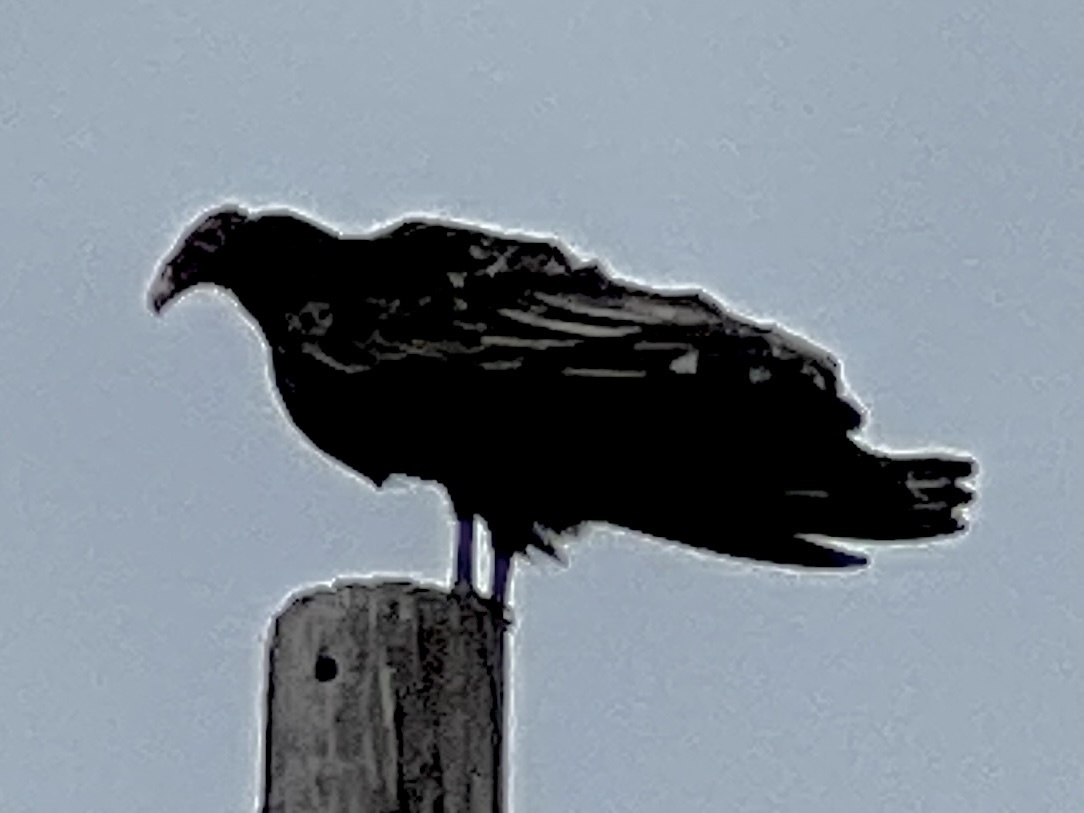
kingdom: Animalia
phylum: Chordata
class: Aves
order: Accipitriformes
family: Cathartidae
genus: Cathartes
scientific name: Cathartes aura
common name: Turkey vulture
